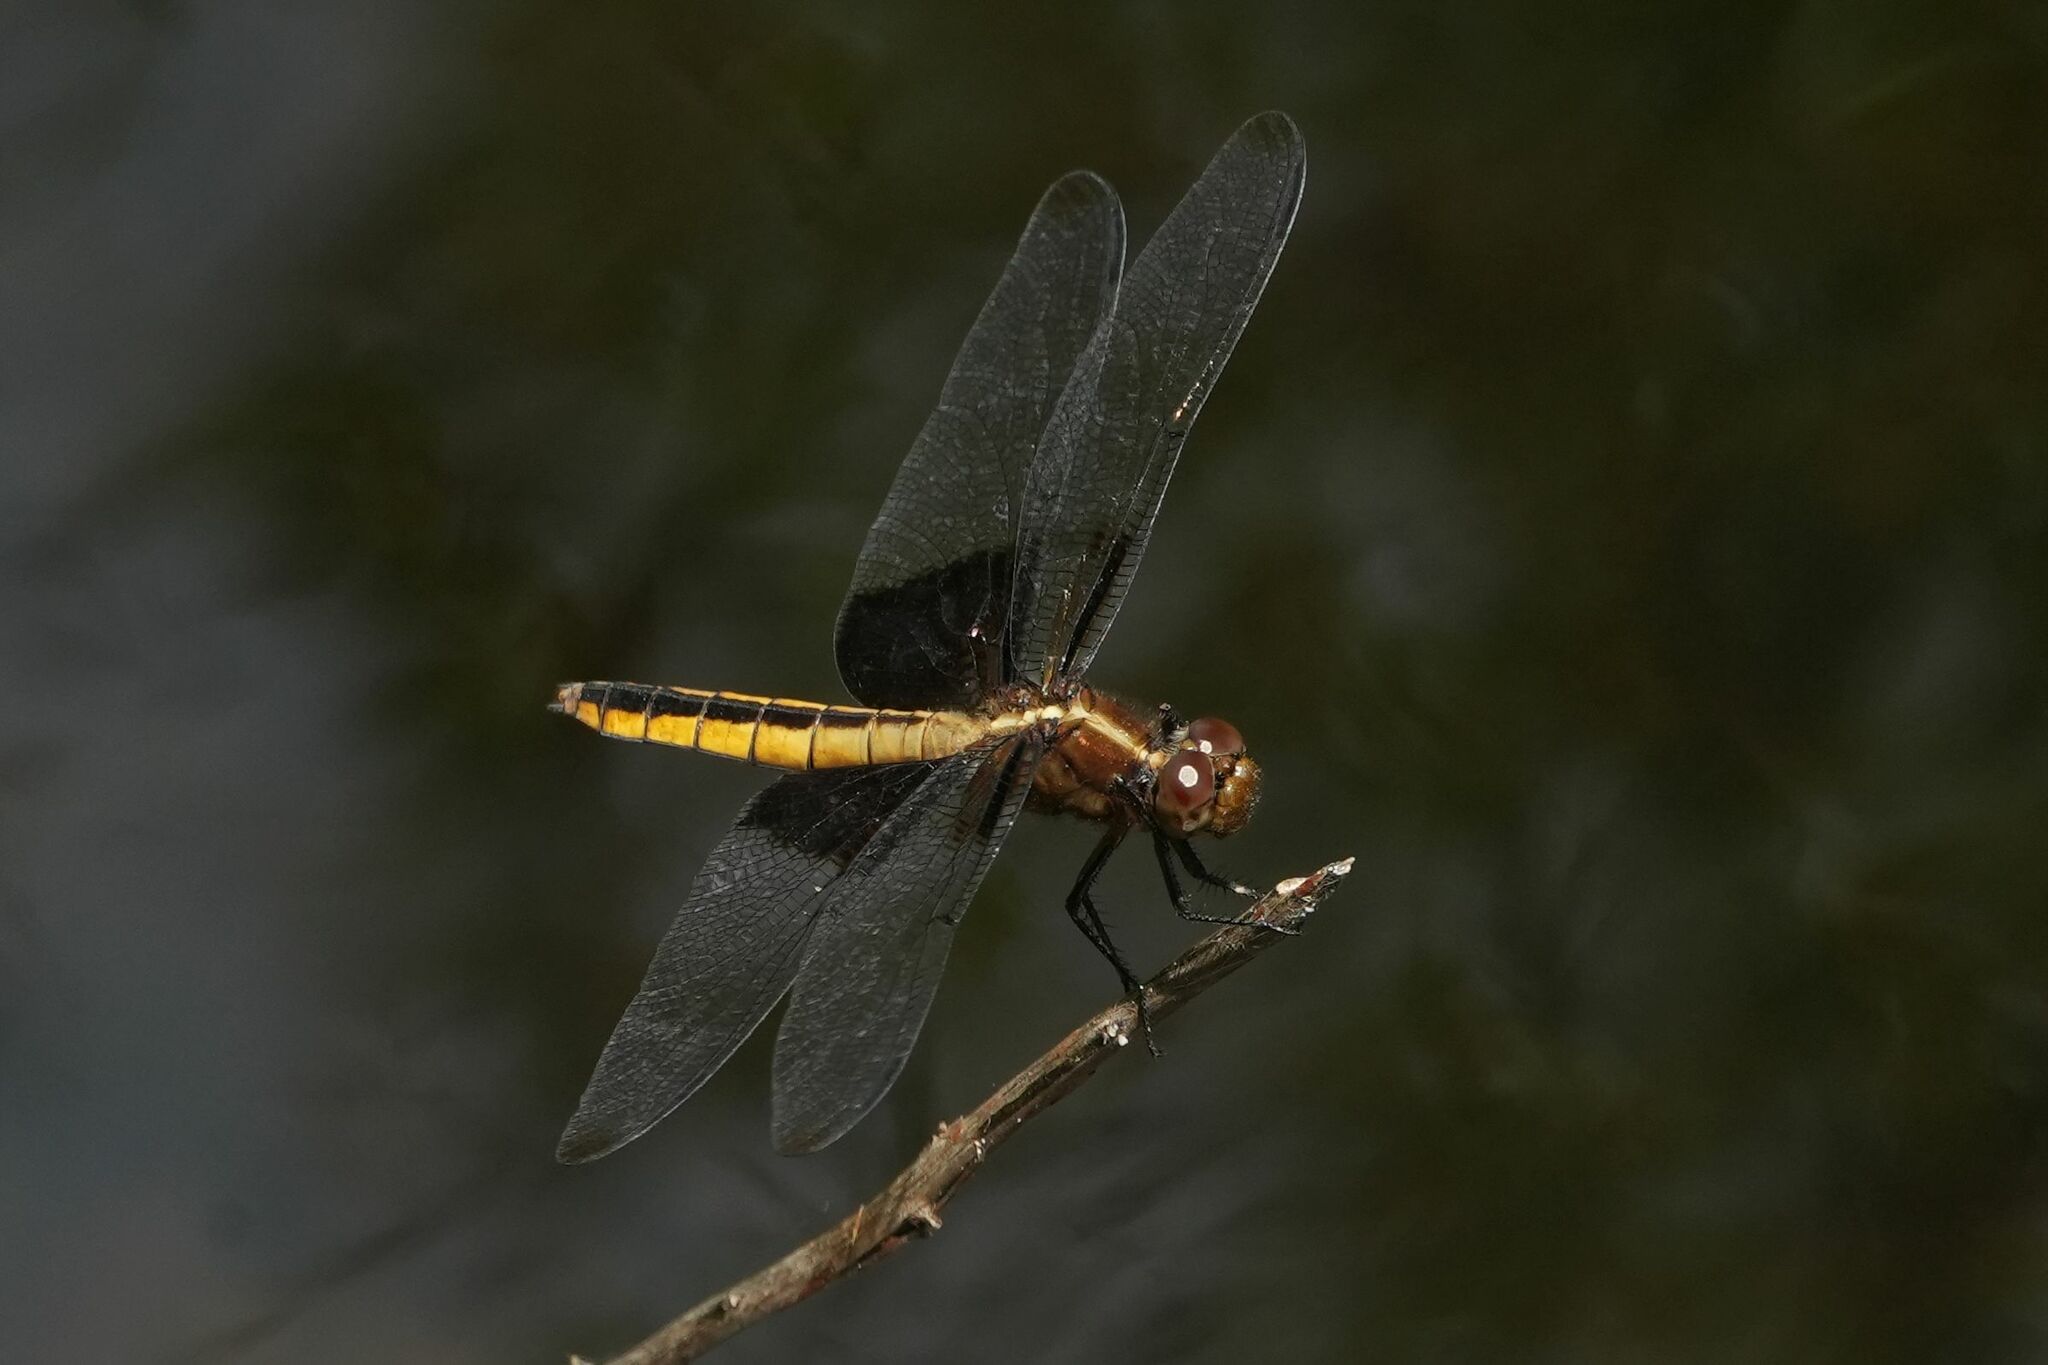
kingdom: Animalia
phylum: Arthropoda
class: Insecta
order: Odonata
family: Libellulidae
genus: Libellula
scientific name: Libellula luctuosa
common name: Widow skimmer
